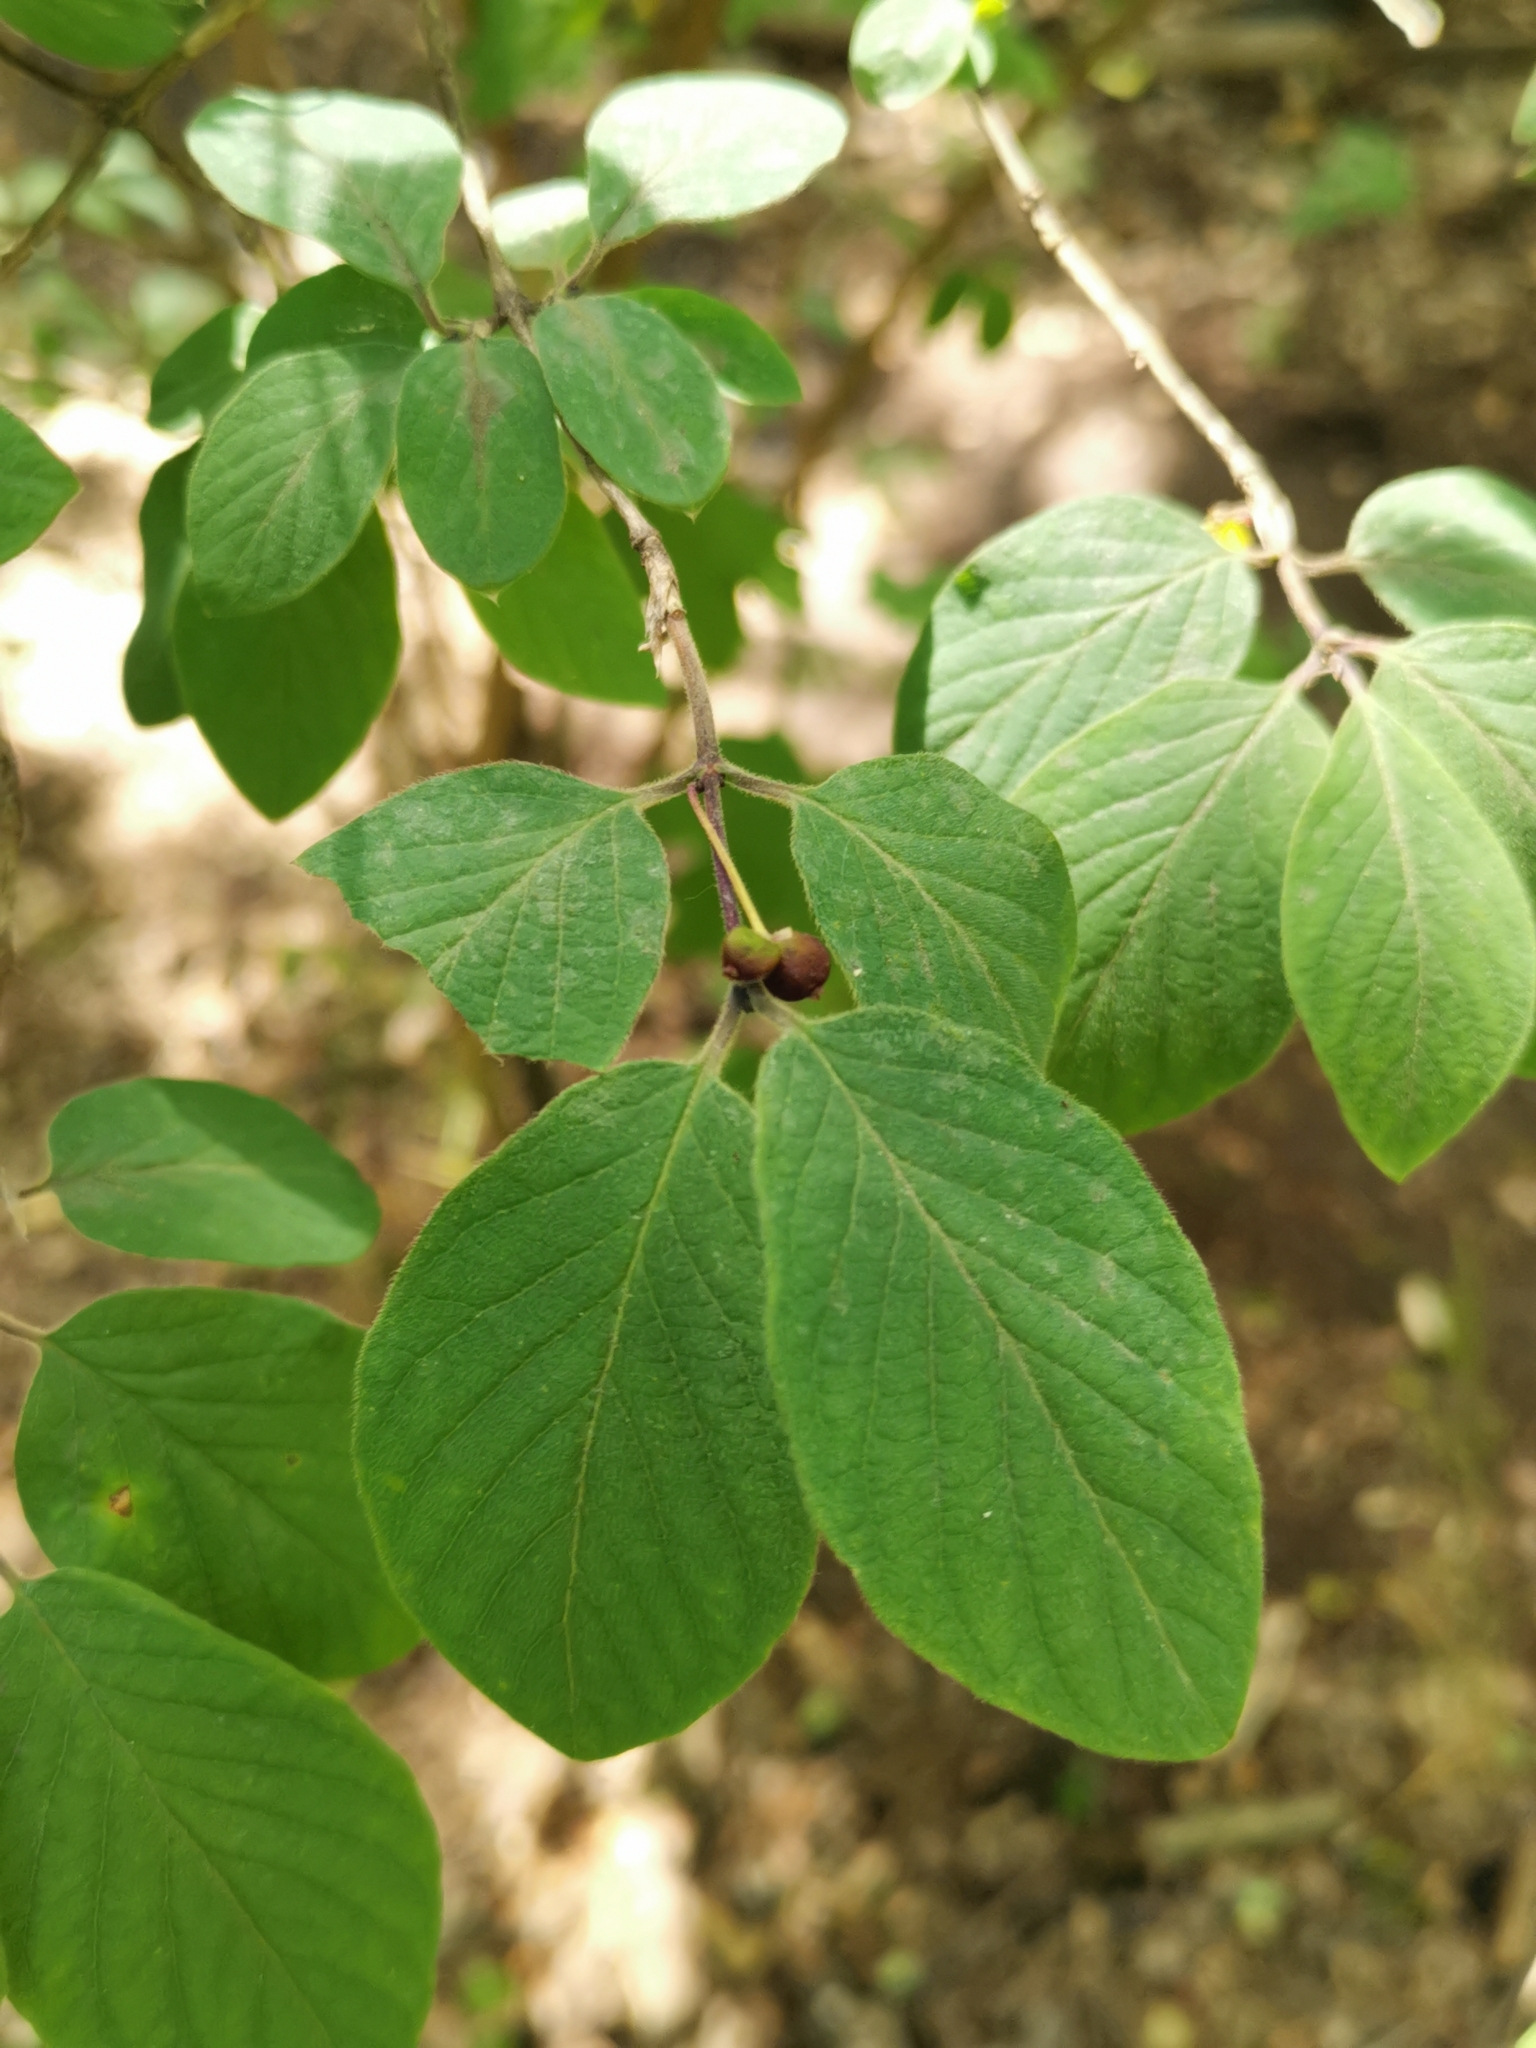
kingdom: Plantae
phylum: Tracheophyta
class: Magnoliopsida
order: Dipsacales
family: Caprifoliaceae
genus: Lonicera
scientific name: Lonicera xylosteum
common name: Fly honeysuckle
